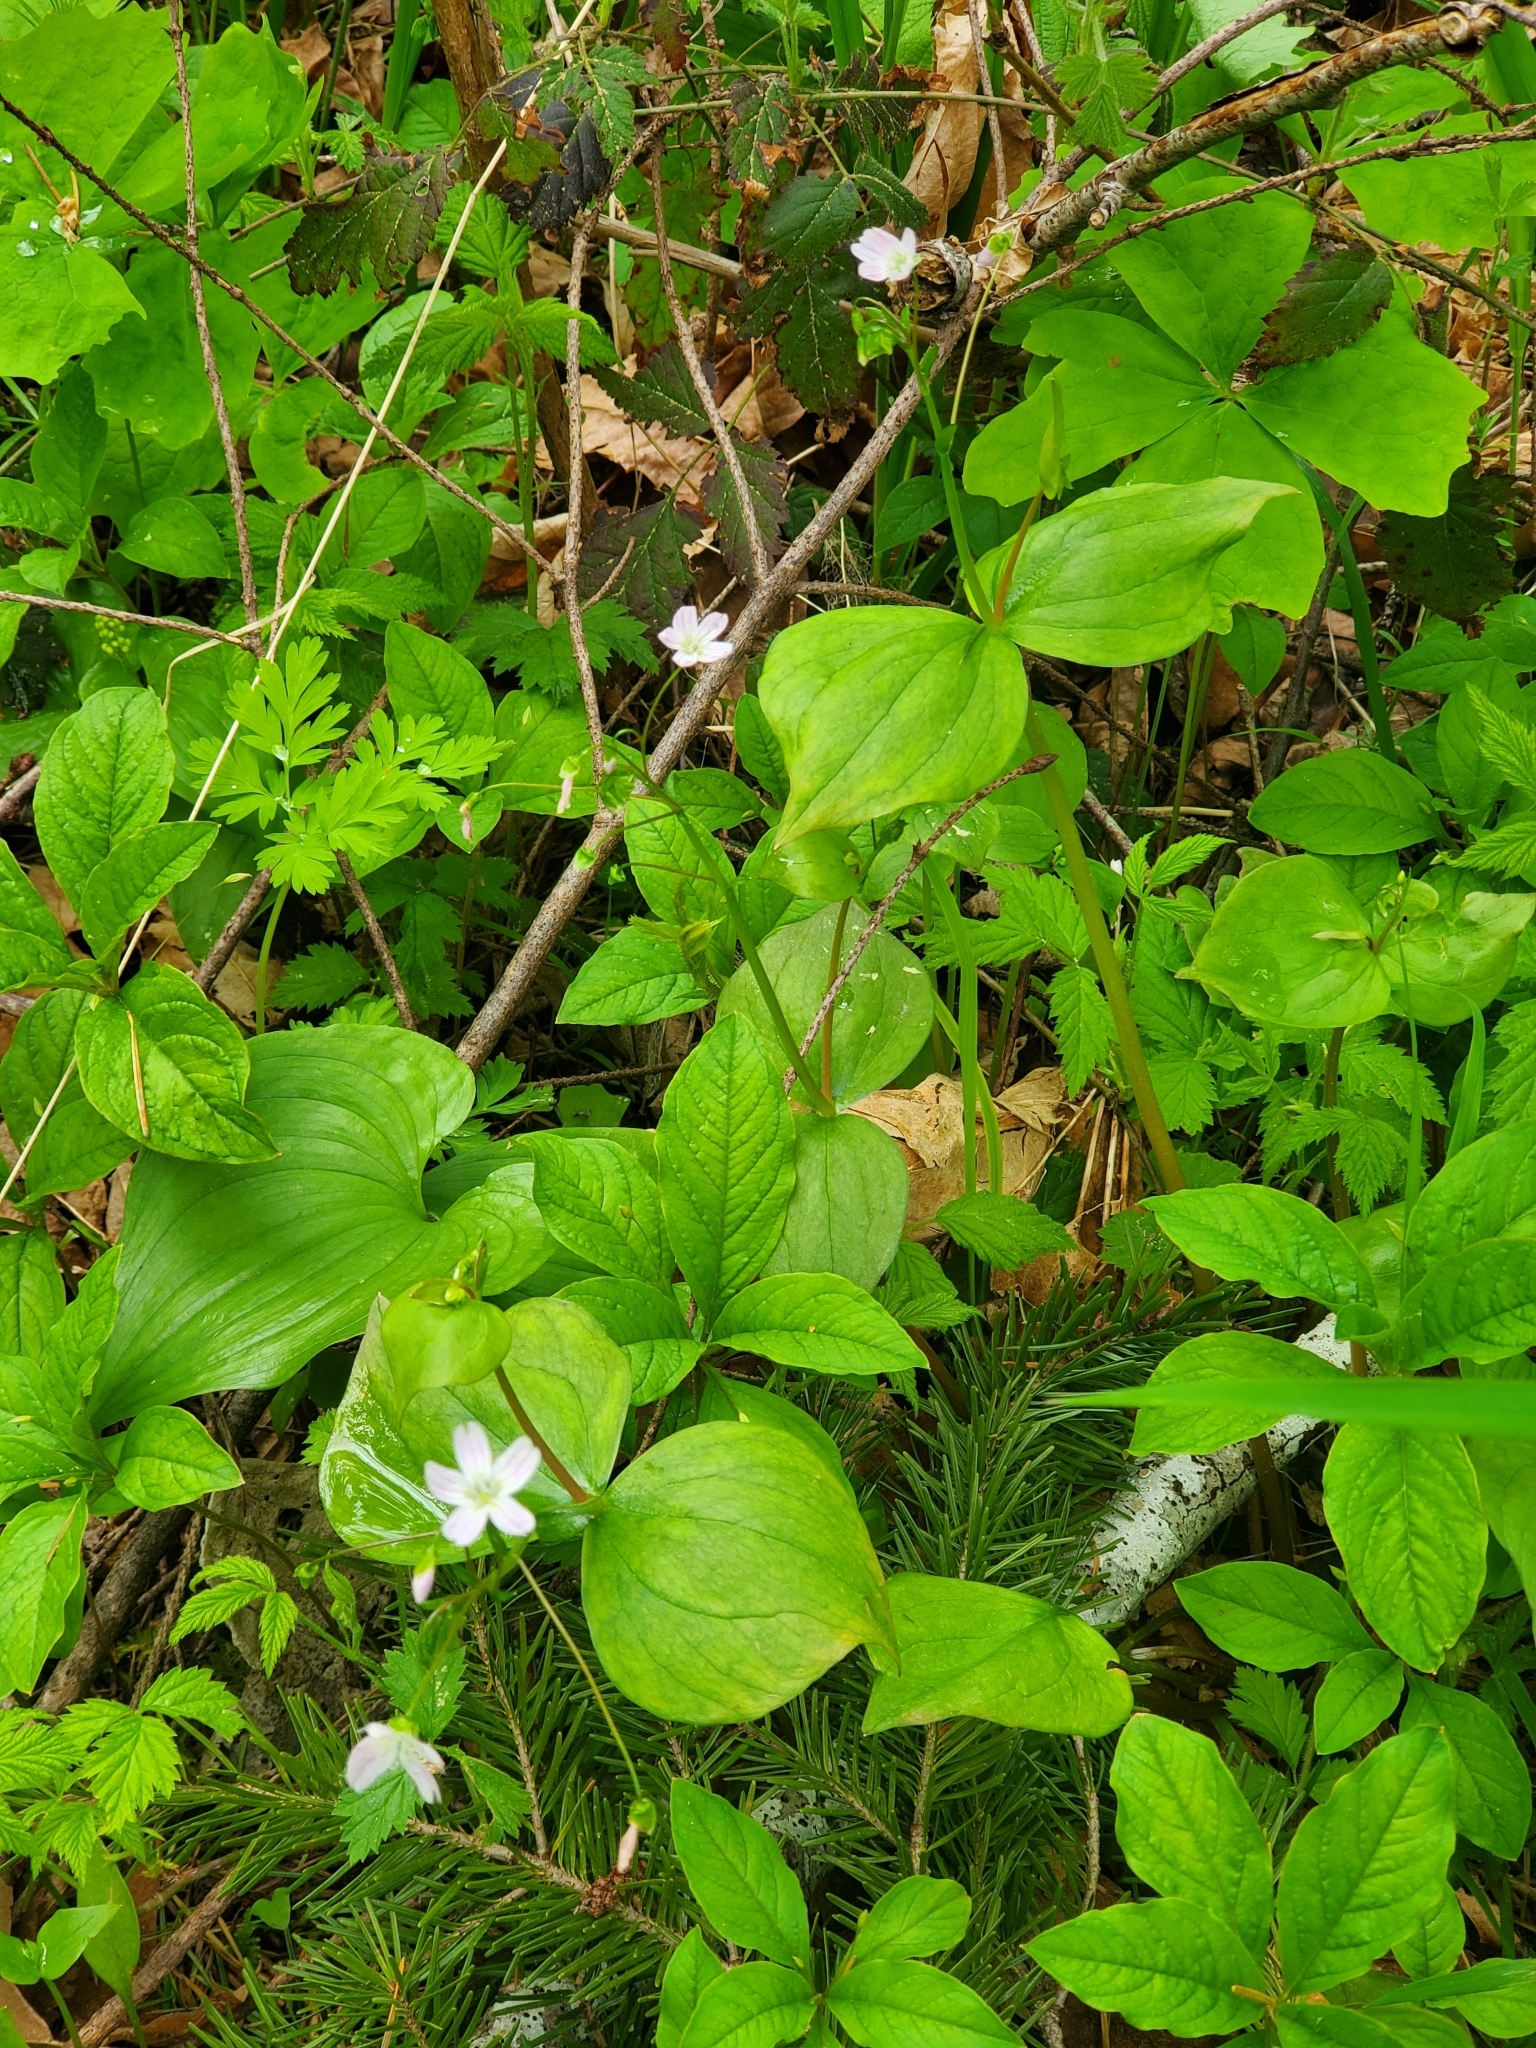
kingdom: Plantae
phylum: Tracheophyta
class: Magnoliopsida
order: Caryophyllales
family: Montiaceae
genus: Claytonia
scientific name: Claytonia sibirica
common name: Pink purslane
